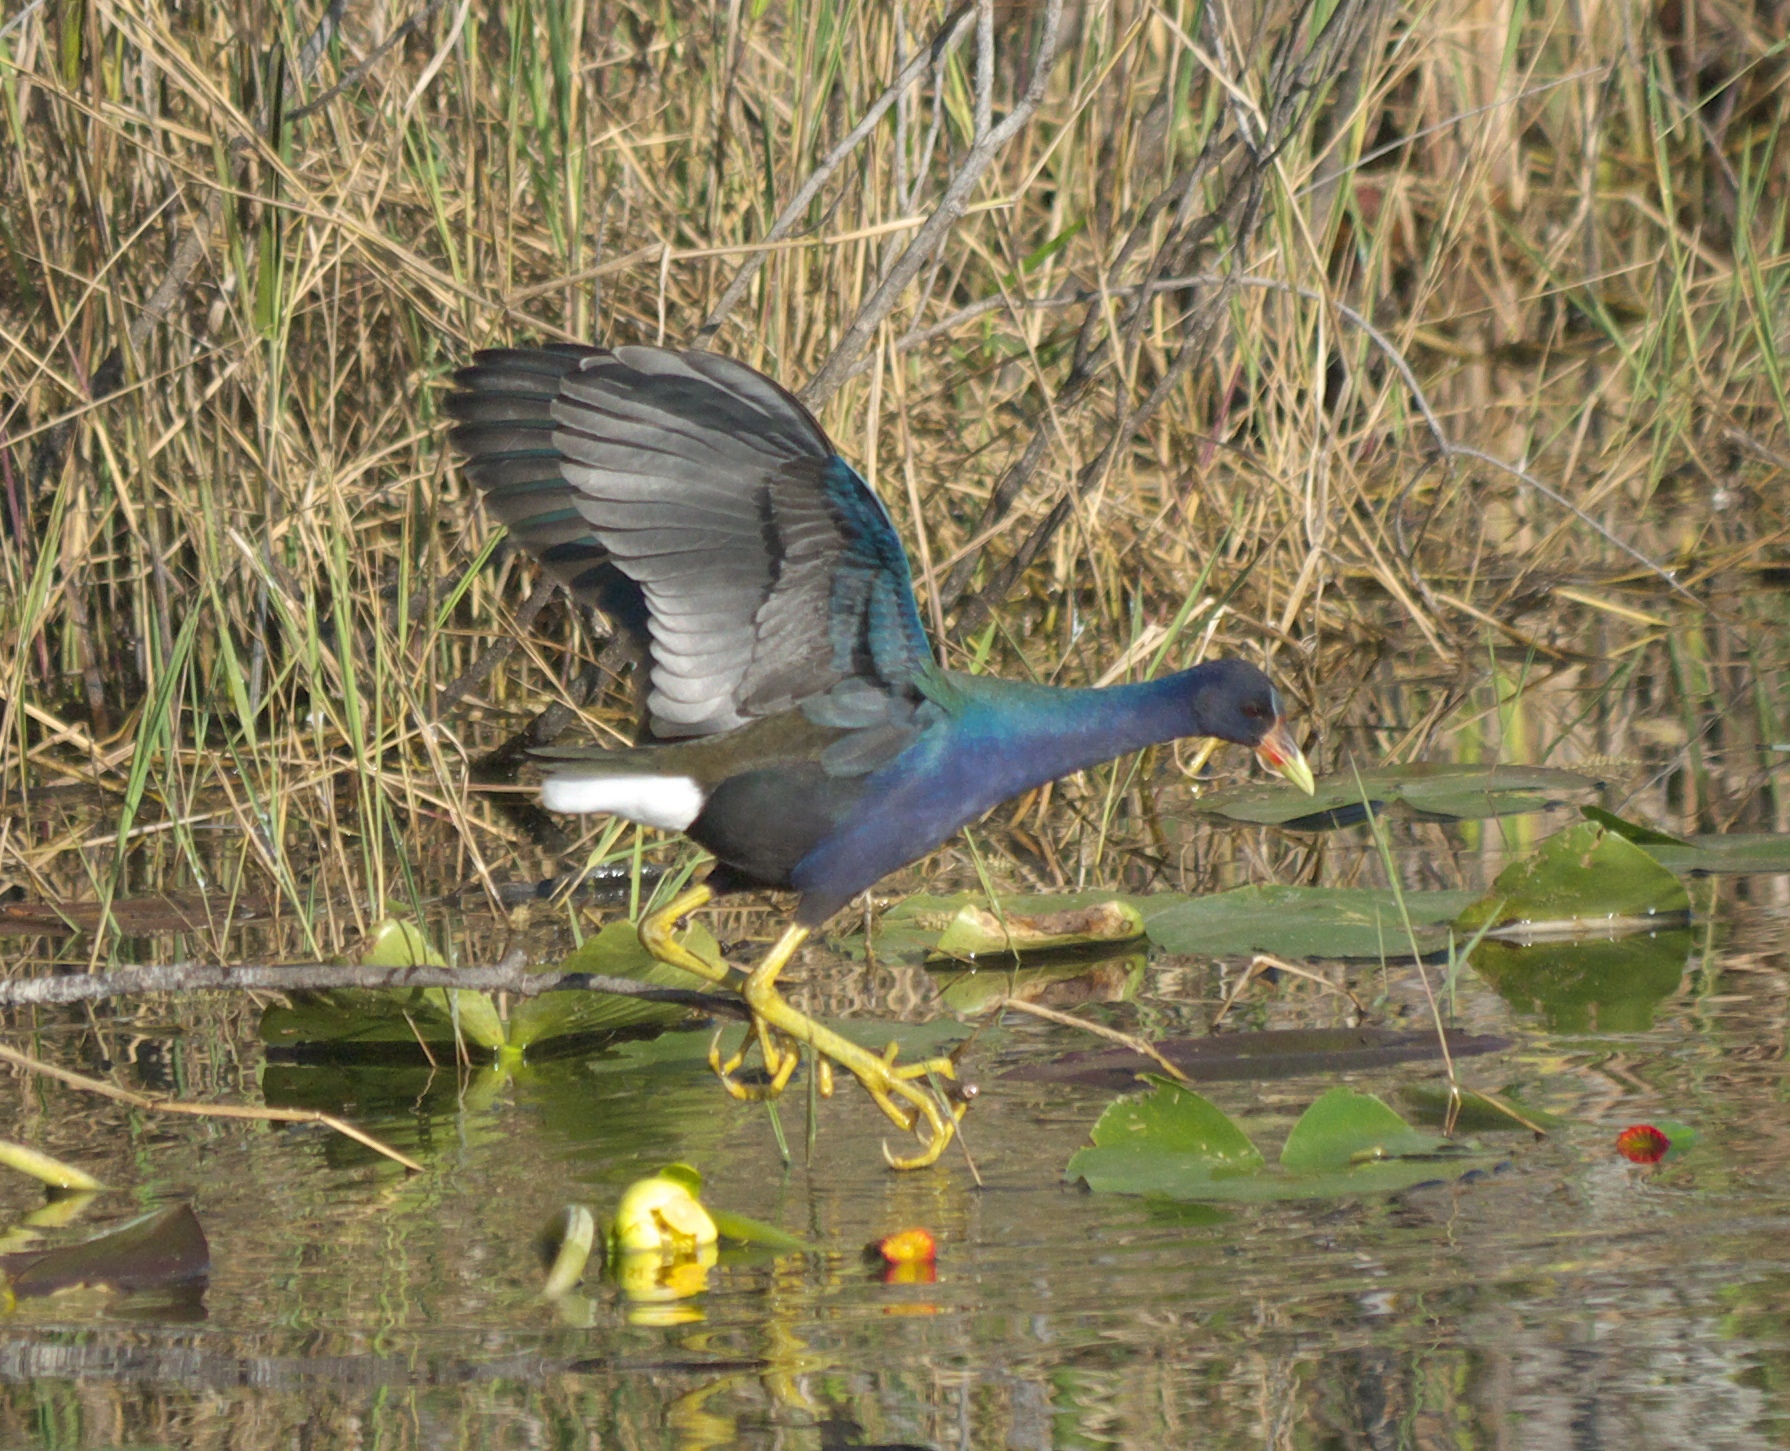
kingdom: Animalia
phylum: Chordata
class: Aves
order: Gruiformes
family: Rallidae
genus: Porphyrio
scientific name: Porphyrio martinica
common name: Purple gallinule
